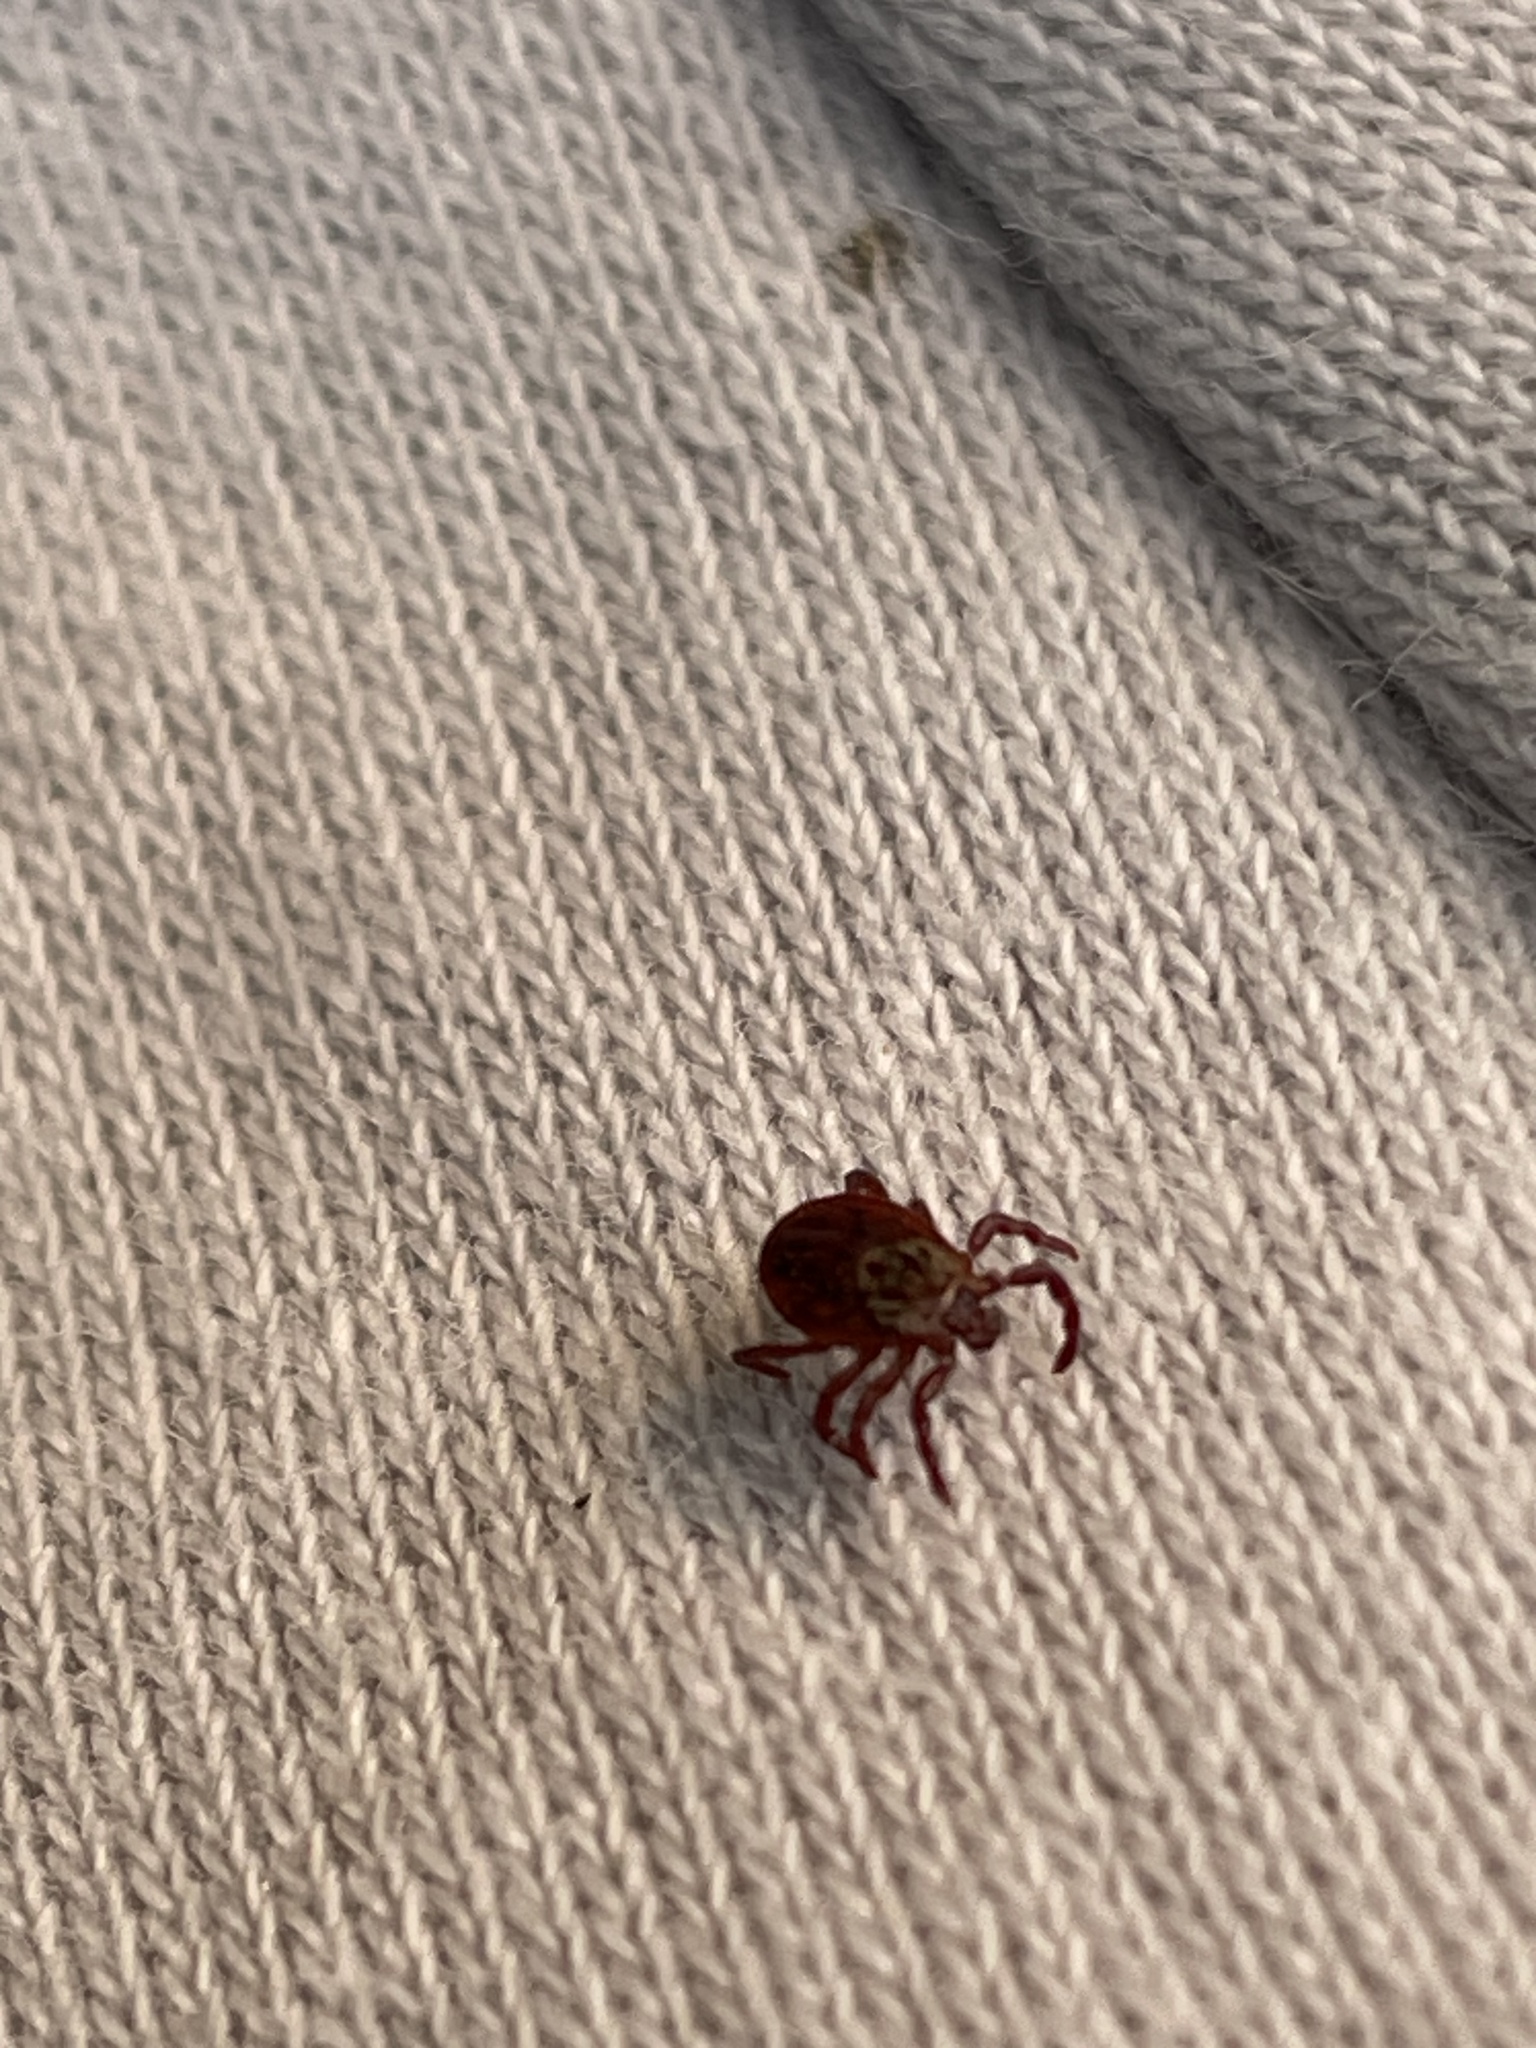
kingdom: Animalia
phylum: Arthropoda
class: Arachnida
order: Ixodida
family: Ixodidae
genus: Dermacentor
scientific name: Dermacentor reticulatus
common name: Ornate cow tick
